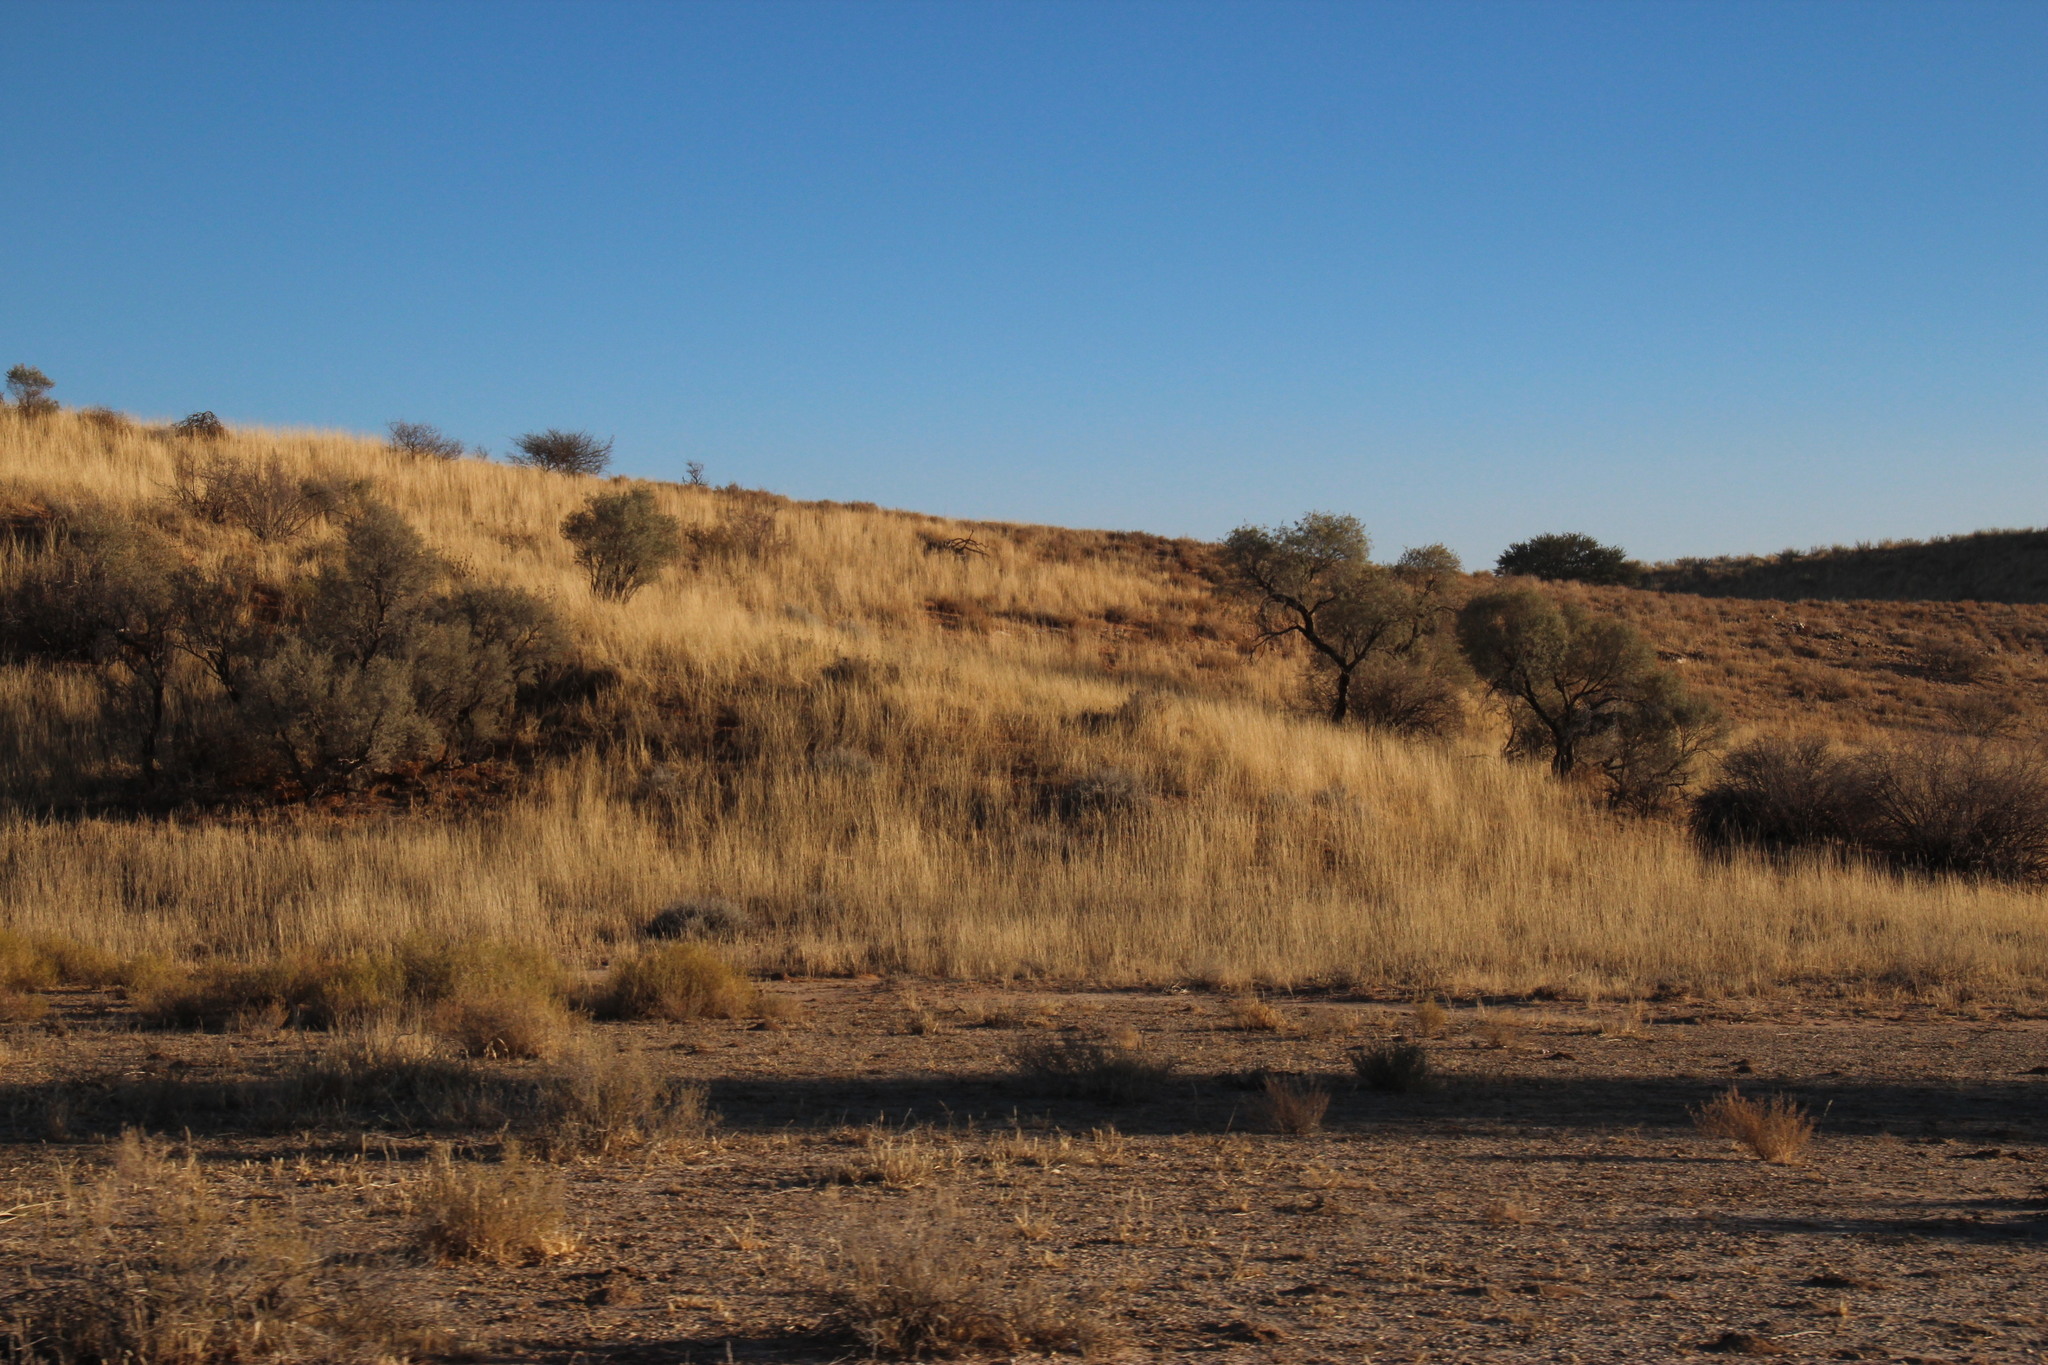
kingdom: Plantae
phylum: Tracheophyta
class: Magnoliopsida
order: Fabales
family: Fabaceae
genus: Vachellia
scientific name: Vachellia haematoxylon
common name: Grey camel thorn
